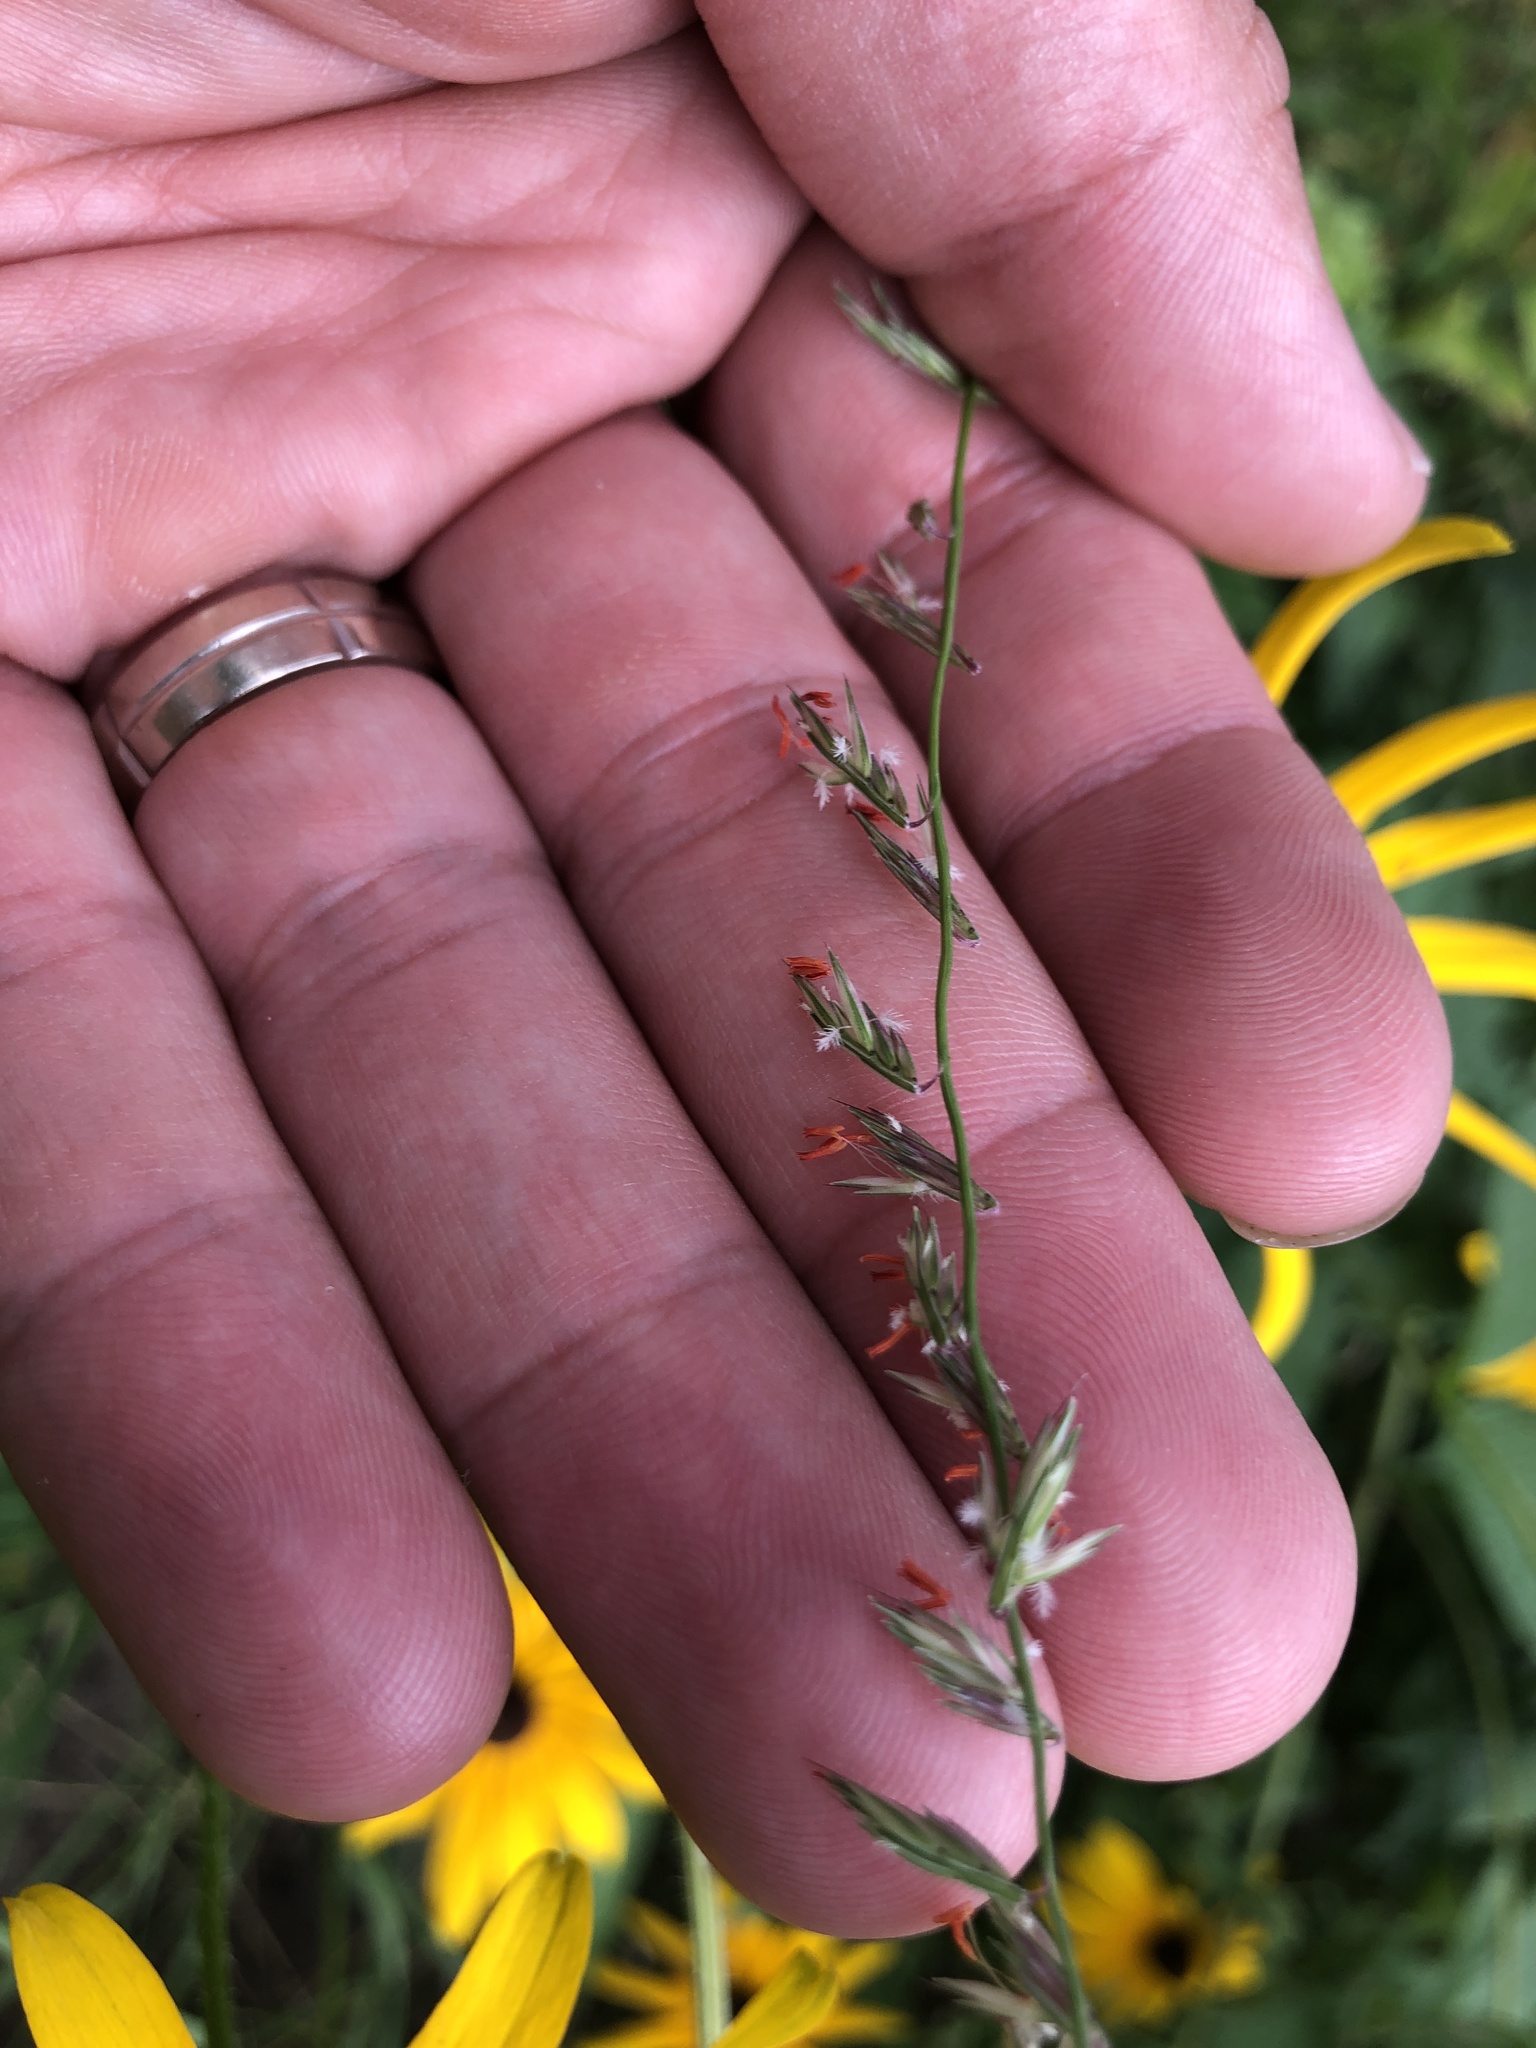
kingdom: Plantae
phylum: Tracheophyta
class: Liliopsida
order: Poales
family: Poaceae
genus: Bouteloua
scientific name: Bouteloua curtipendula
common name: Side-oats grama
